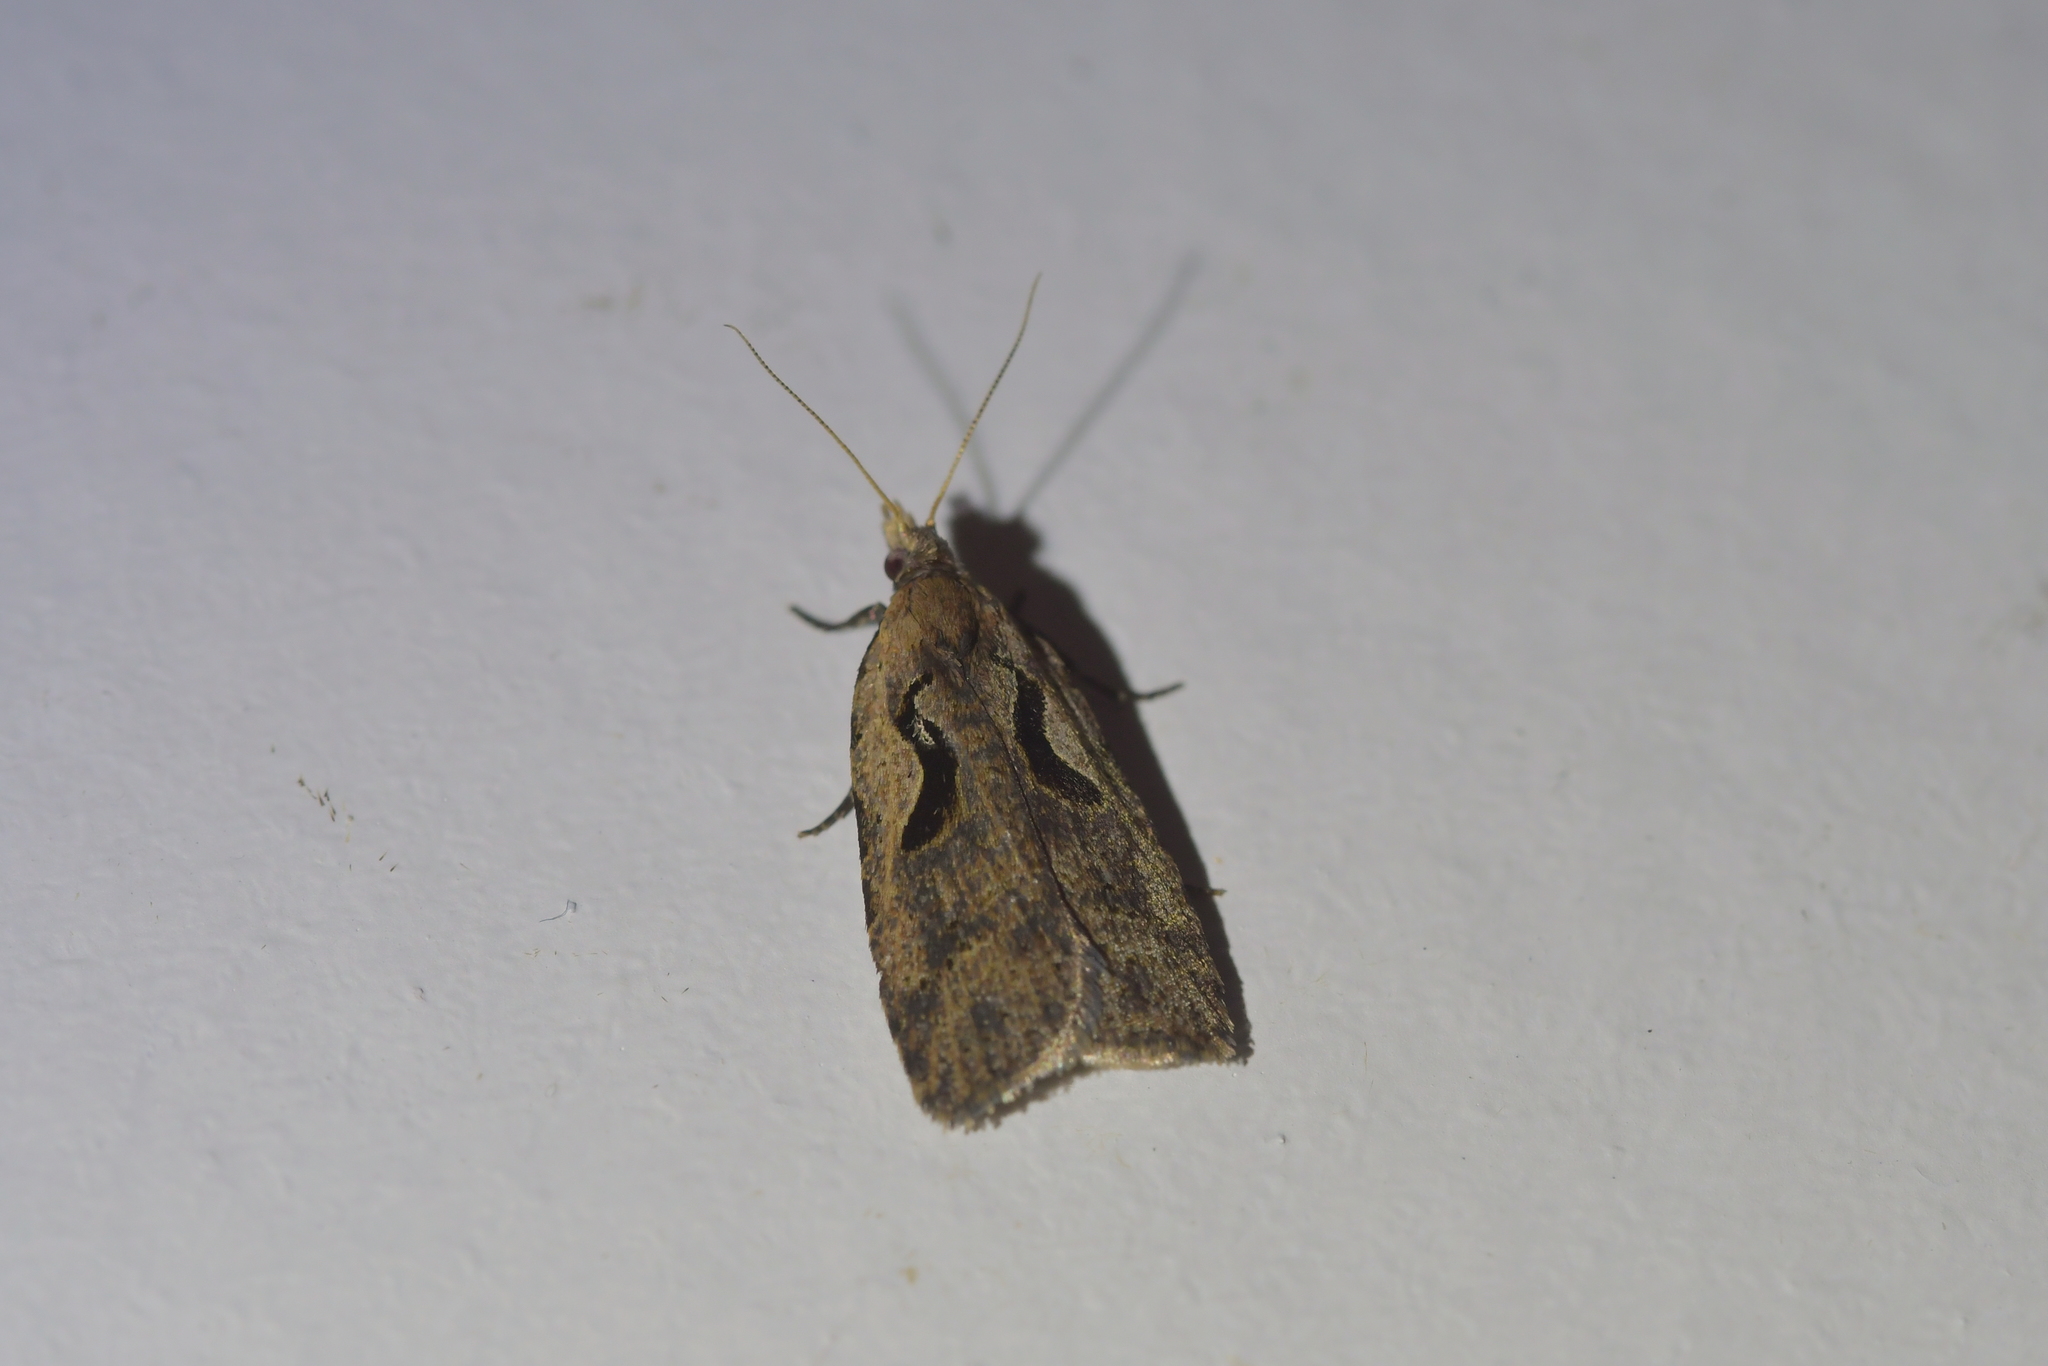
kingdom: Animalia
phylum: Arthropoda
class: Insecta
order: Lepidoptera
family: Tortricidae
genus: Cnephasia
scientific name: Cnephasia jactatana
